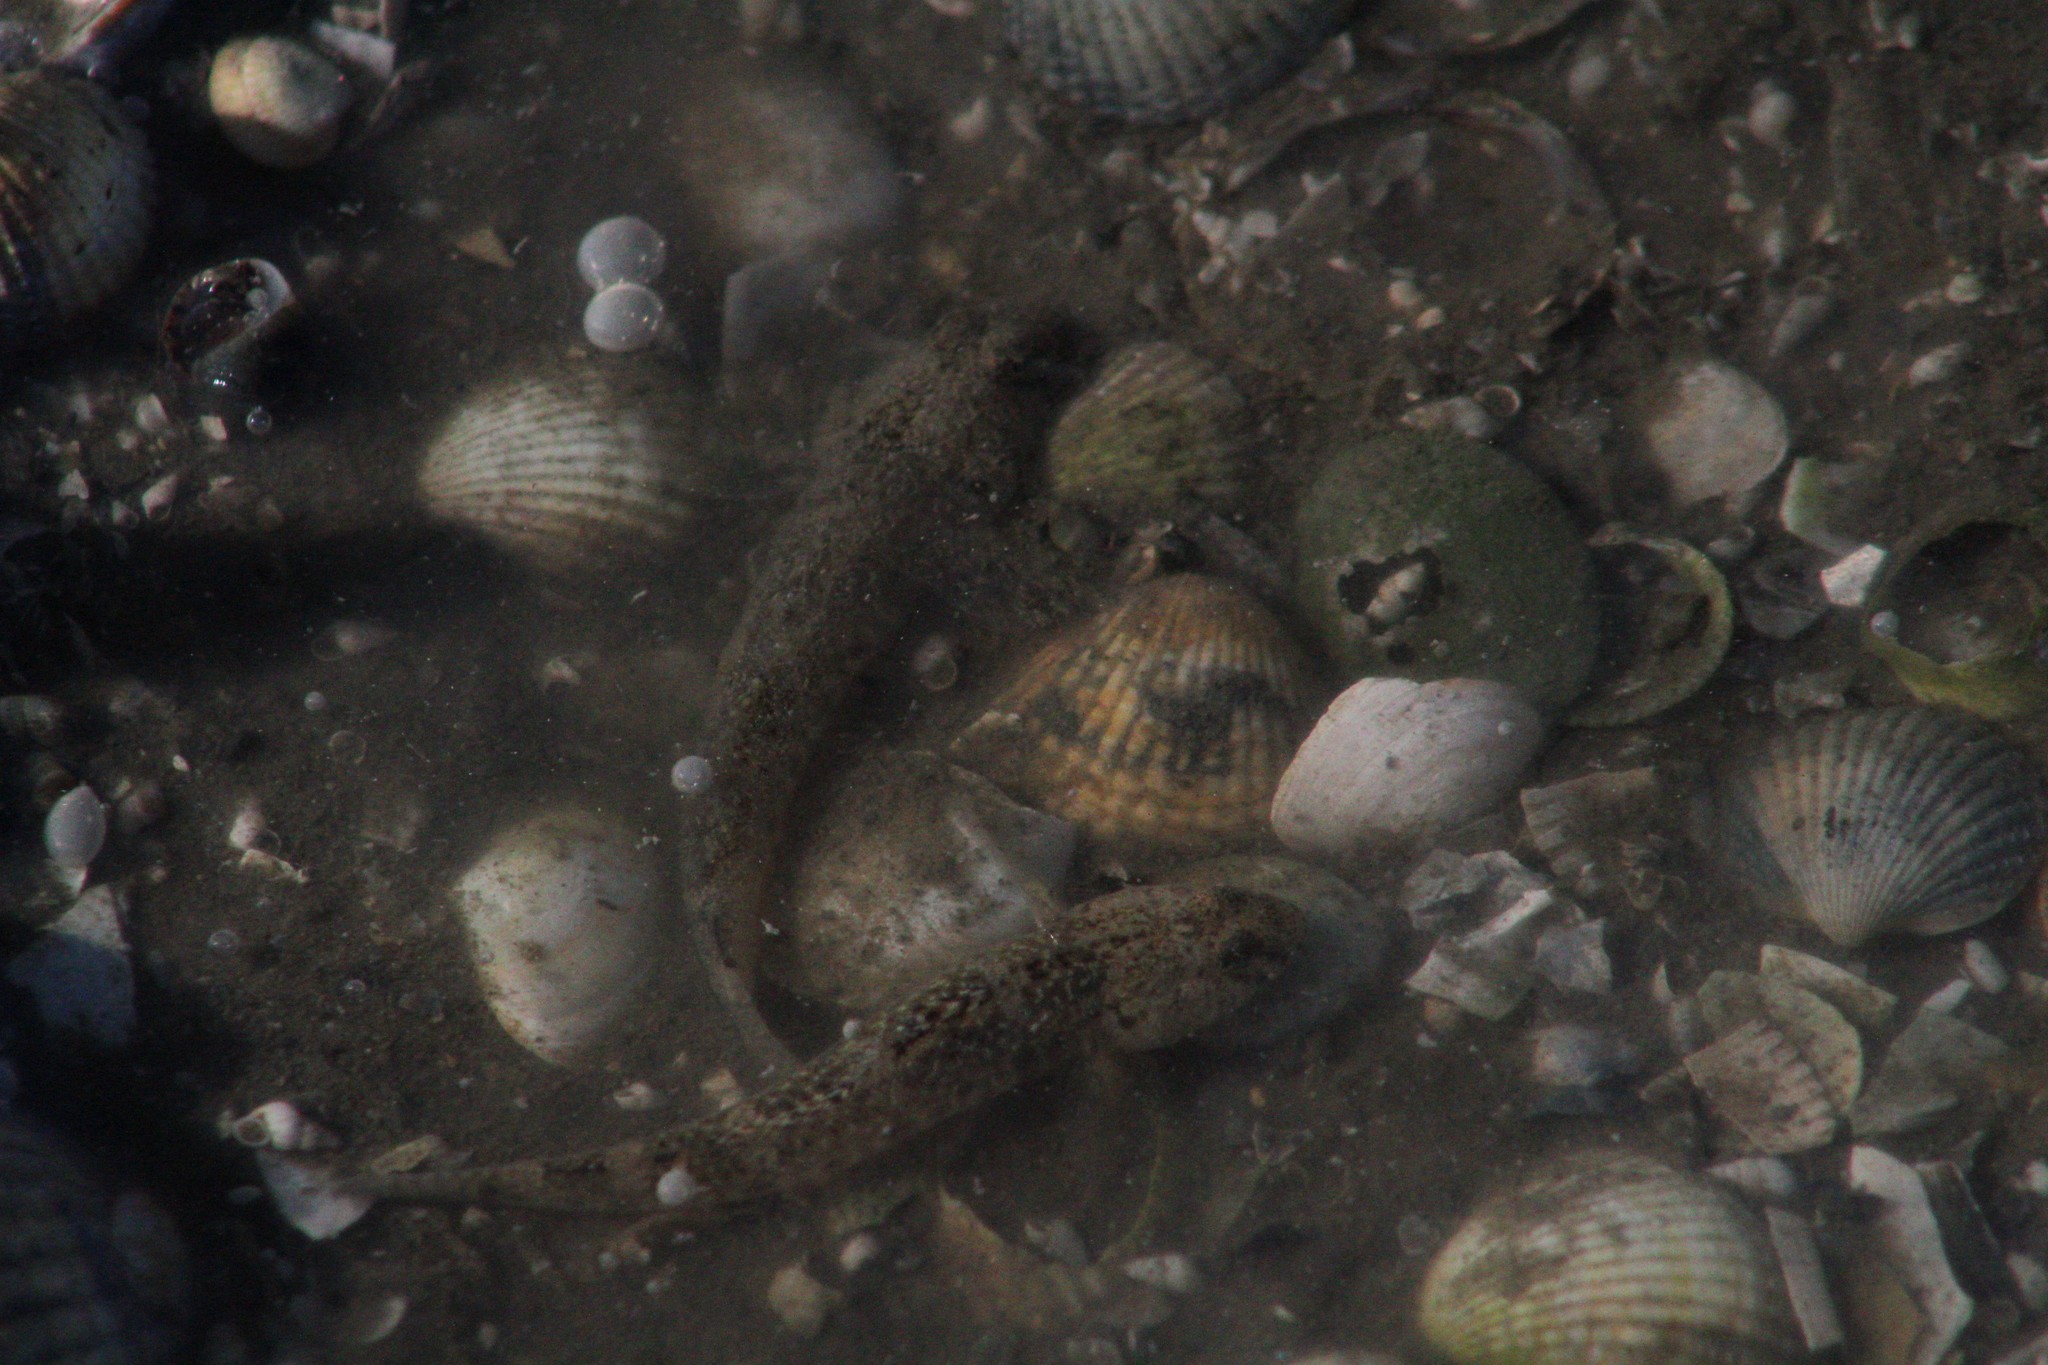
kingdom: Animalia
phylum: Chordata
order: Perciformes
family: Gobiidae
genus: Pomatoschistus
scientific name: Pomatoschistus microps
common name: Common goby
